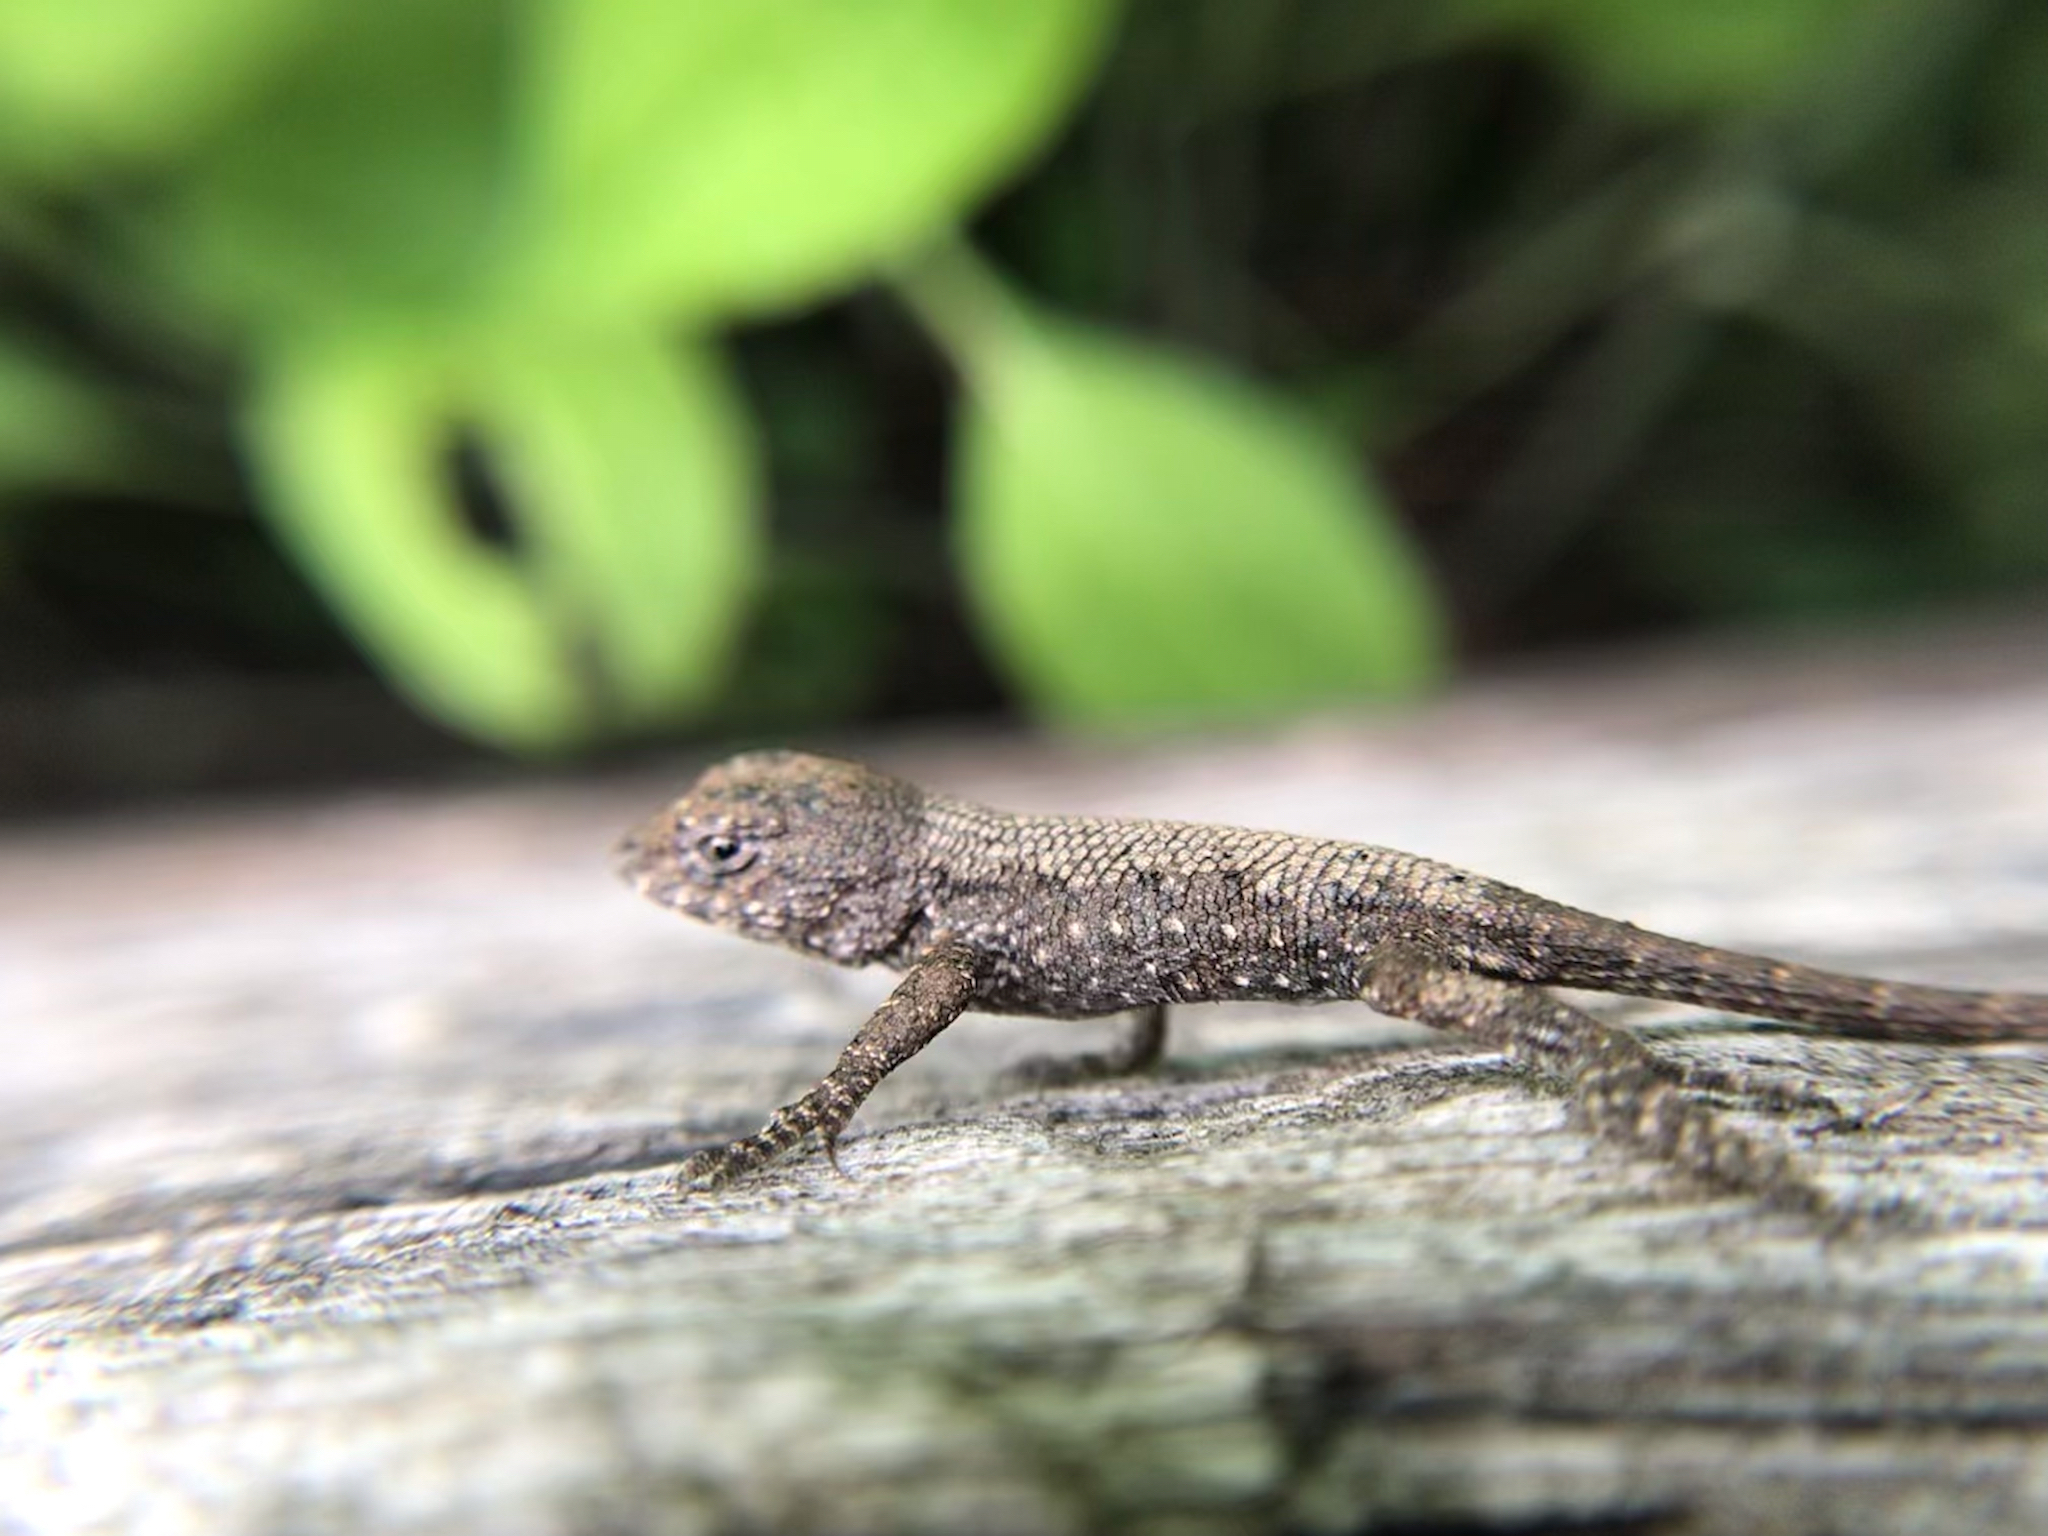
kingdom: Animalia
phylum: Chordata
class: Squamata
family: Phrynosomatidae
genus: Sceloporus
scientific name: Sceloporus undulatus
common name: Eastern fence lizard
